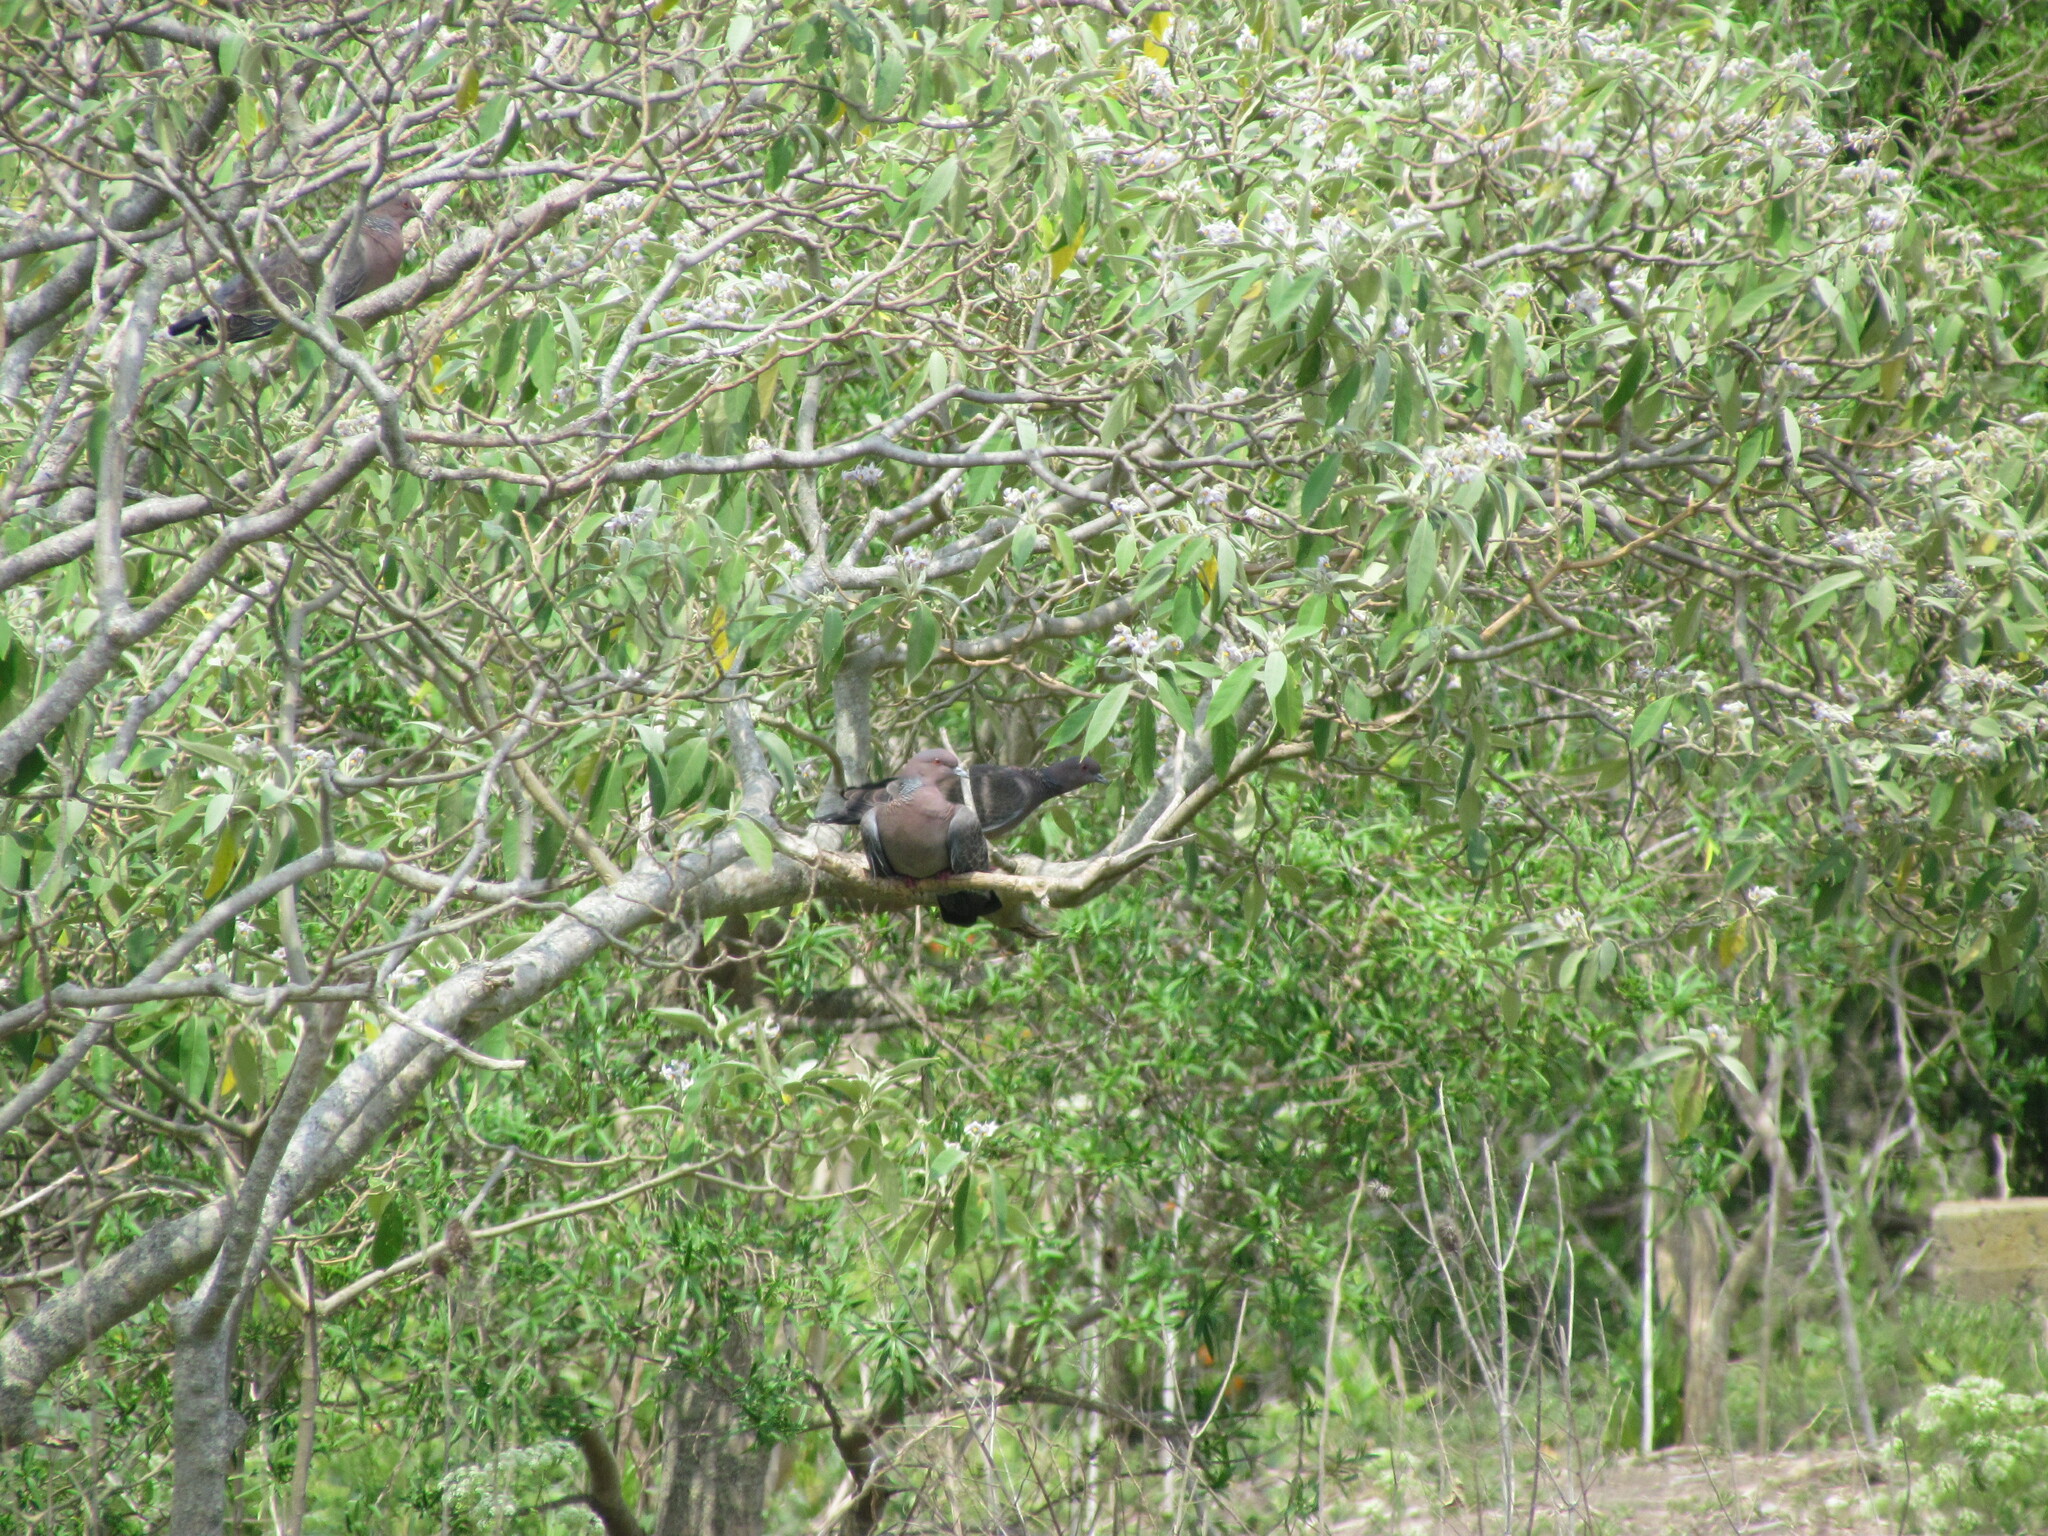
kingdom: Animalia
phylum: Chordata
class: Aves
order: Columbiformes
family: Columbidae
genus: Patagioenas
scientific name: Patagioenas picazuro
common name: Picazuro pigeon
